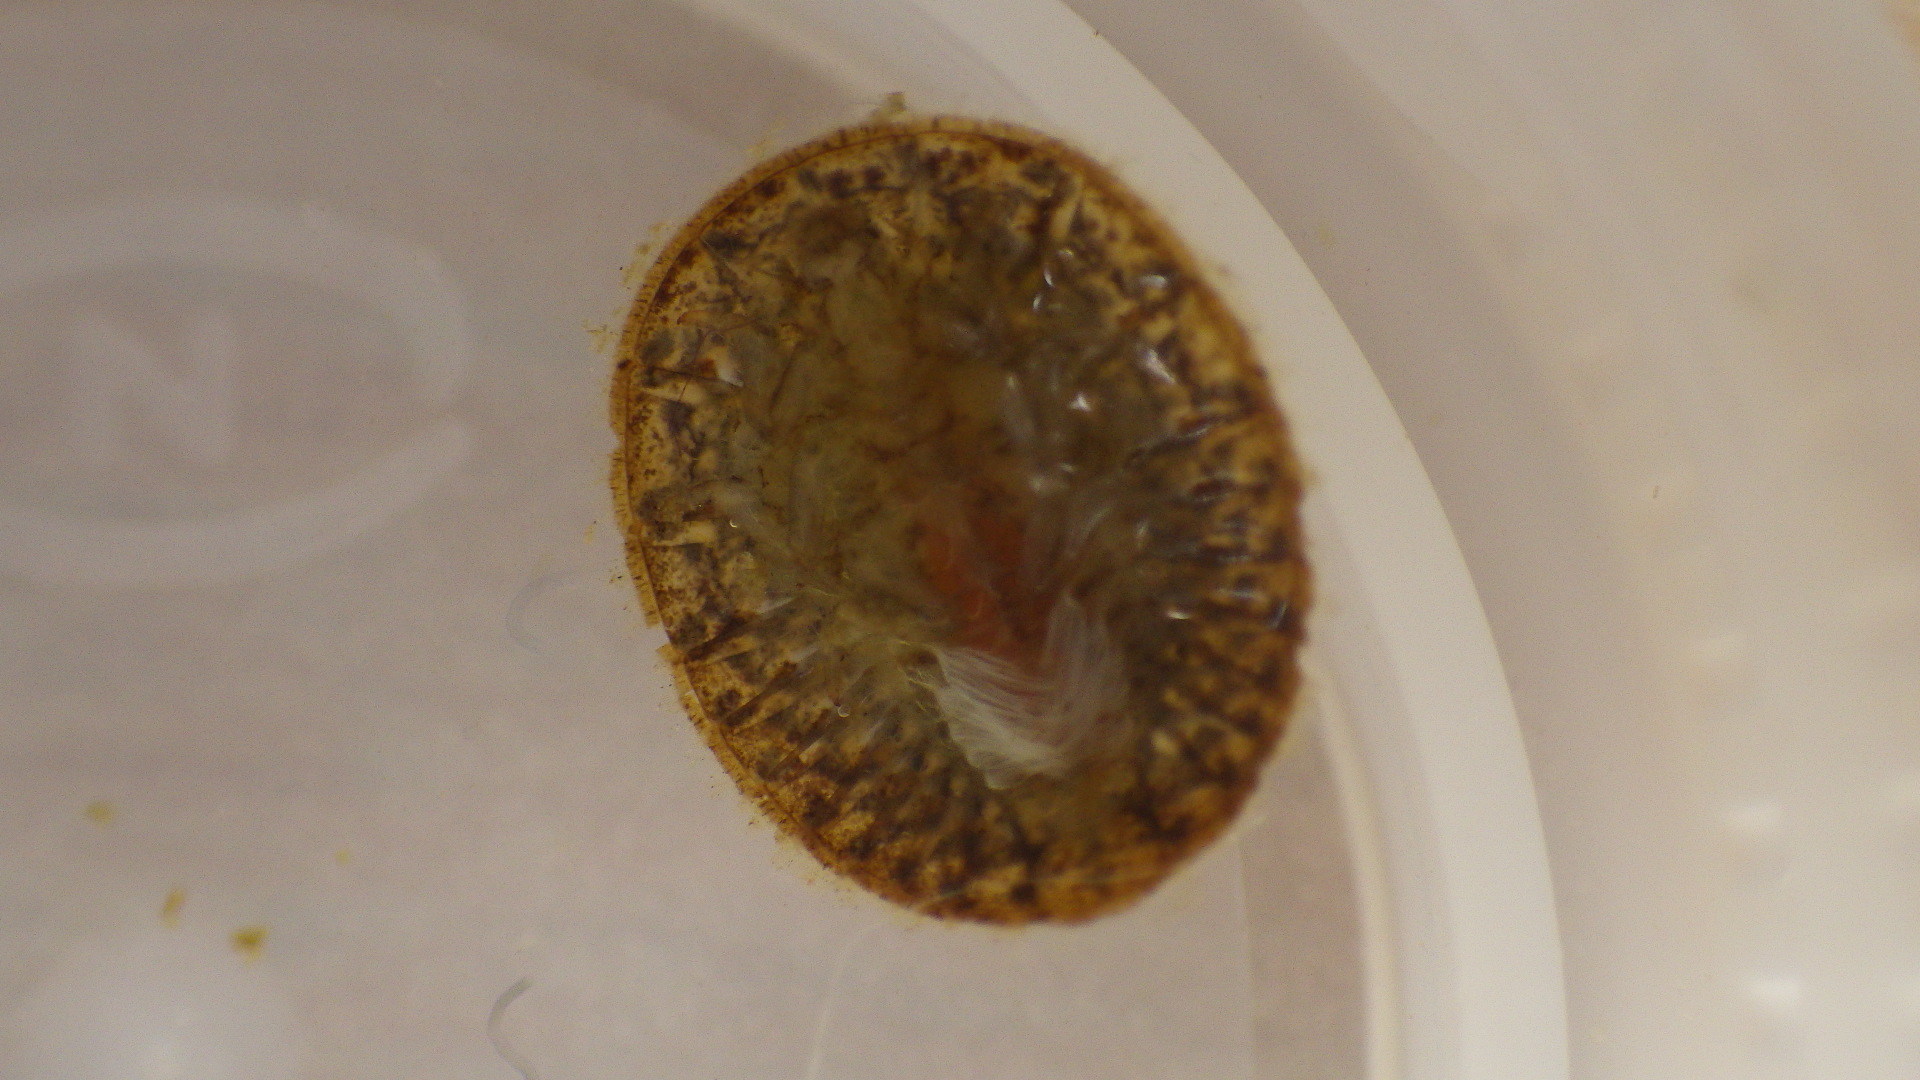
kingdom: Animalia
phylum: Arthropoda
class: Insecta
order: Coleoptera
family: Psephenidae
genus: Psephenus
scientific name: Psephenus herricki
